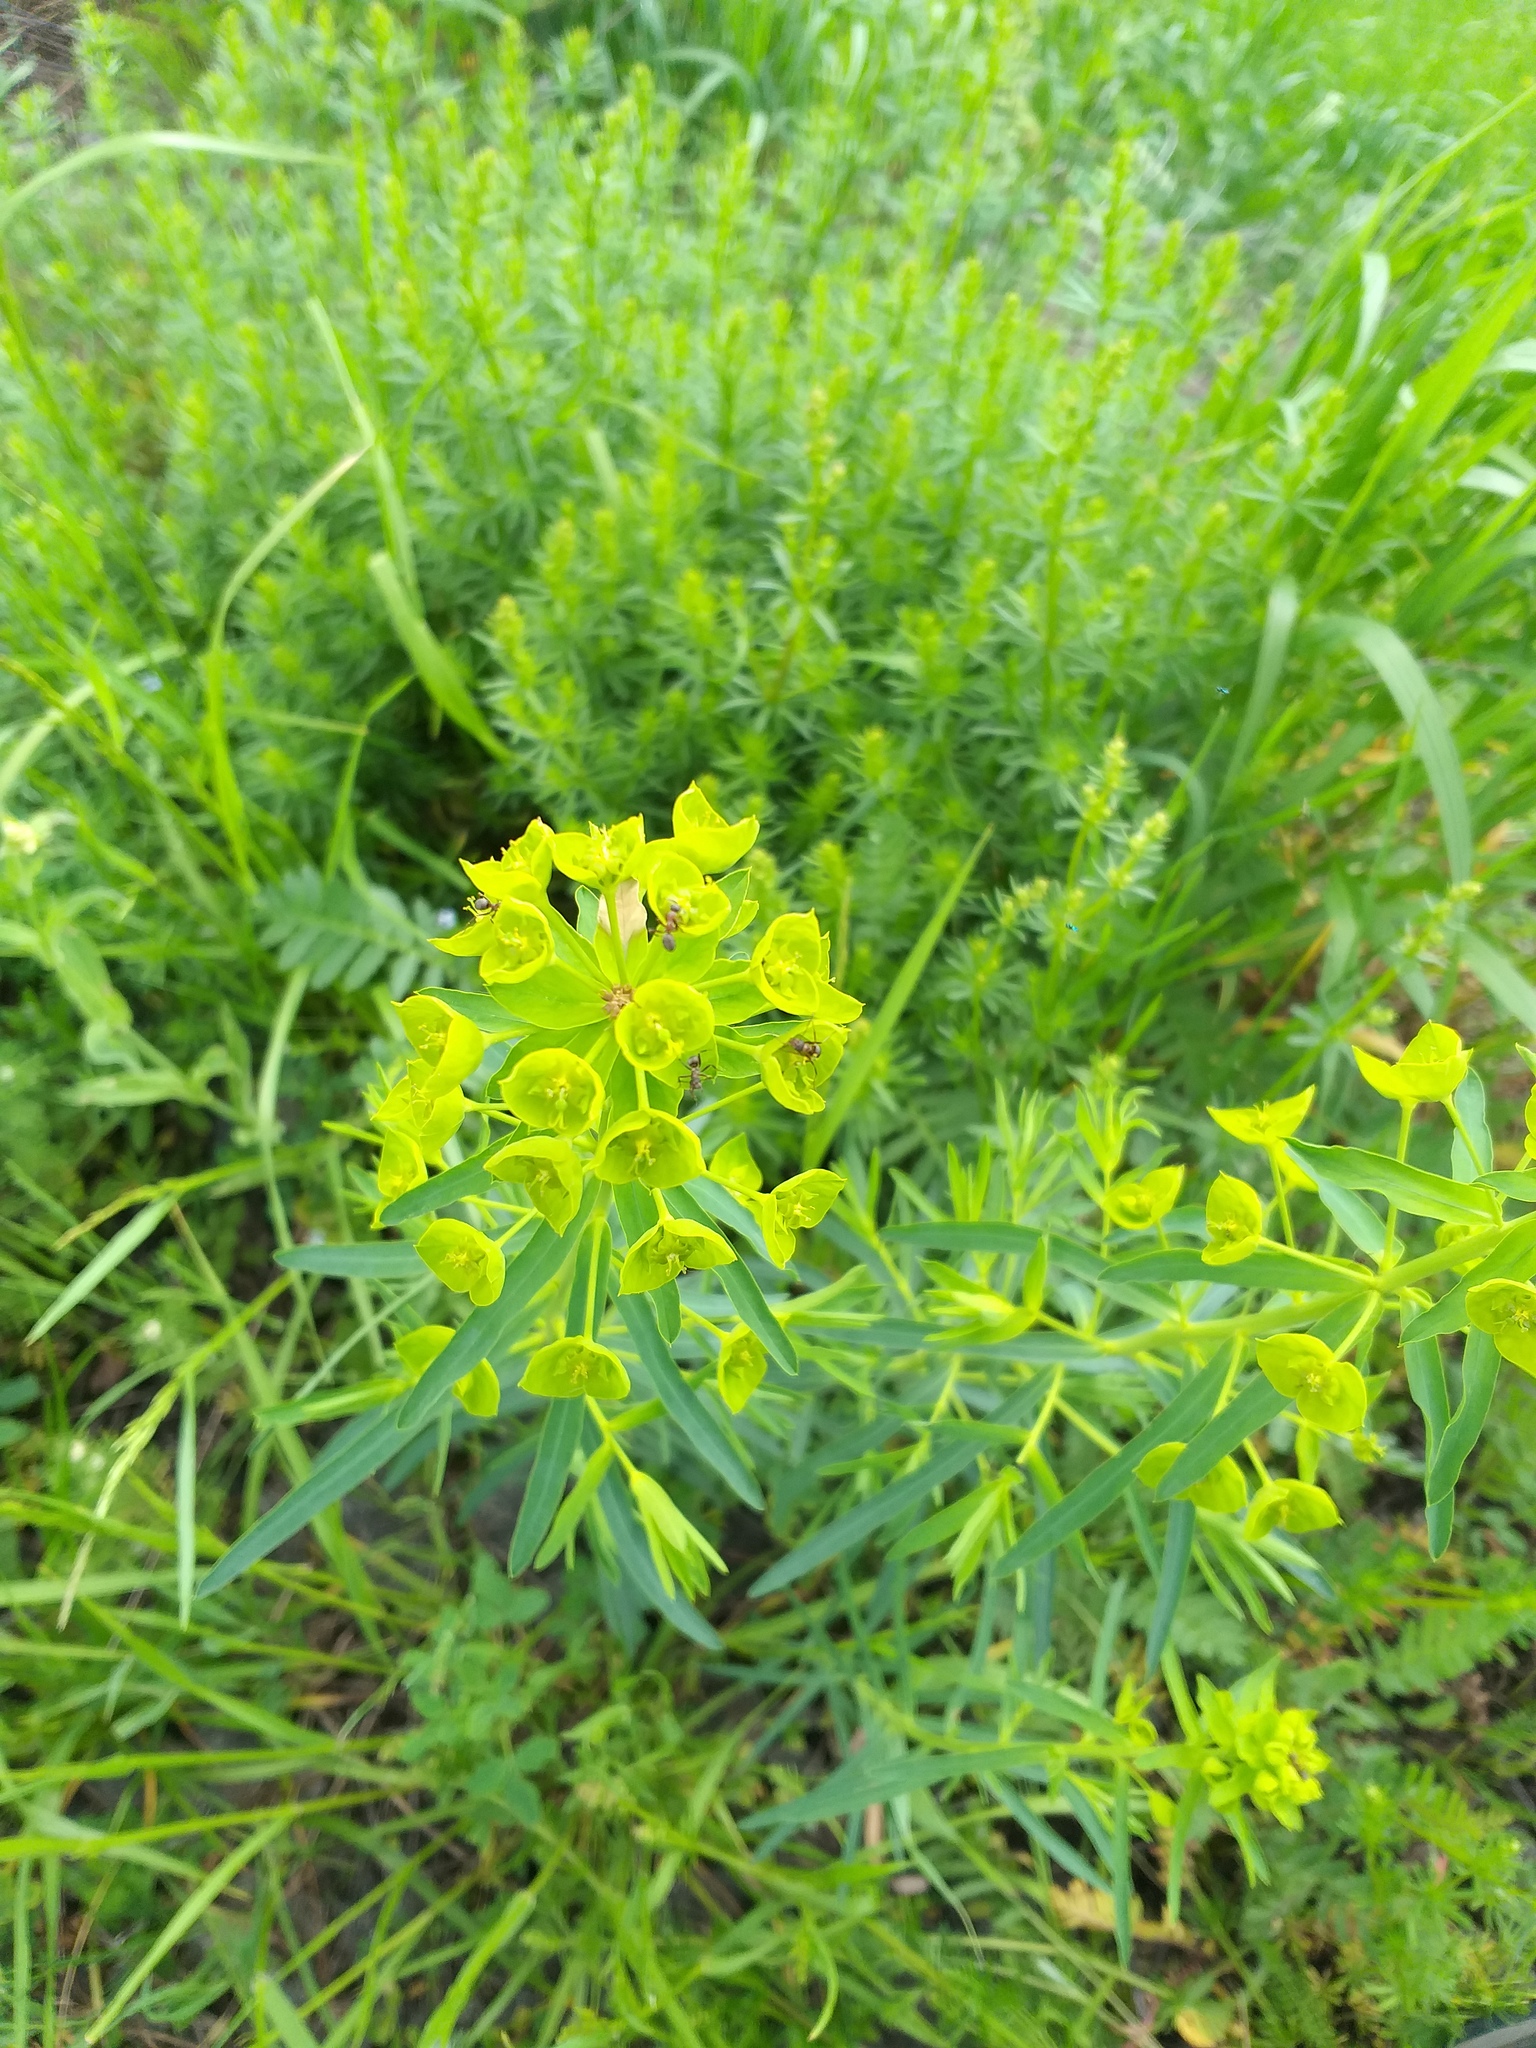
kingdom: Plantae
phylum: Tracheophyta
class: Magnoliopsida
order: Malpighiales
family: Euphorbiaceae
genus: Euphorbia
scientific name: Euphorbia virgata
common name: Leafy spurge
